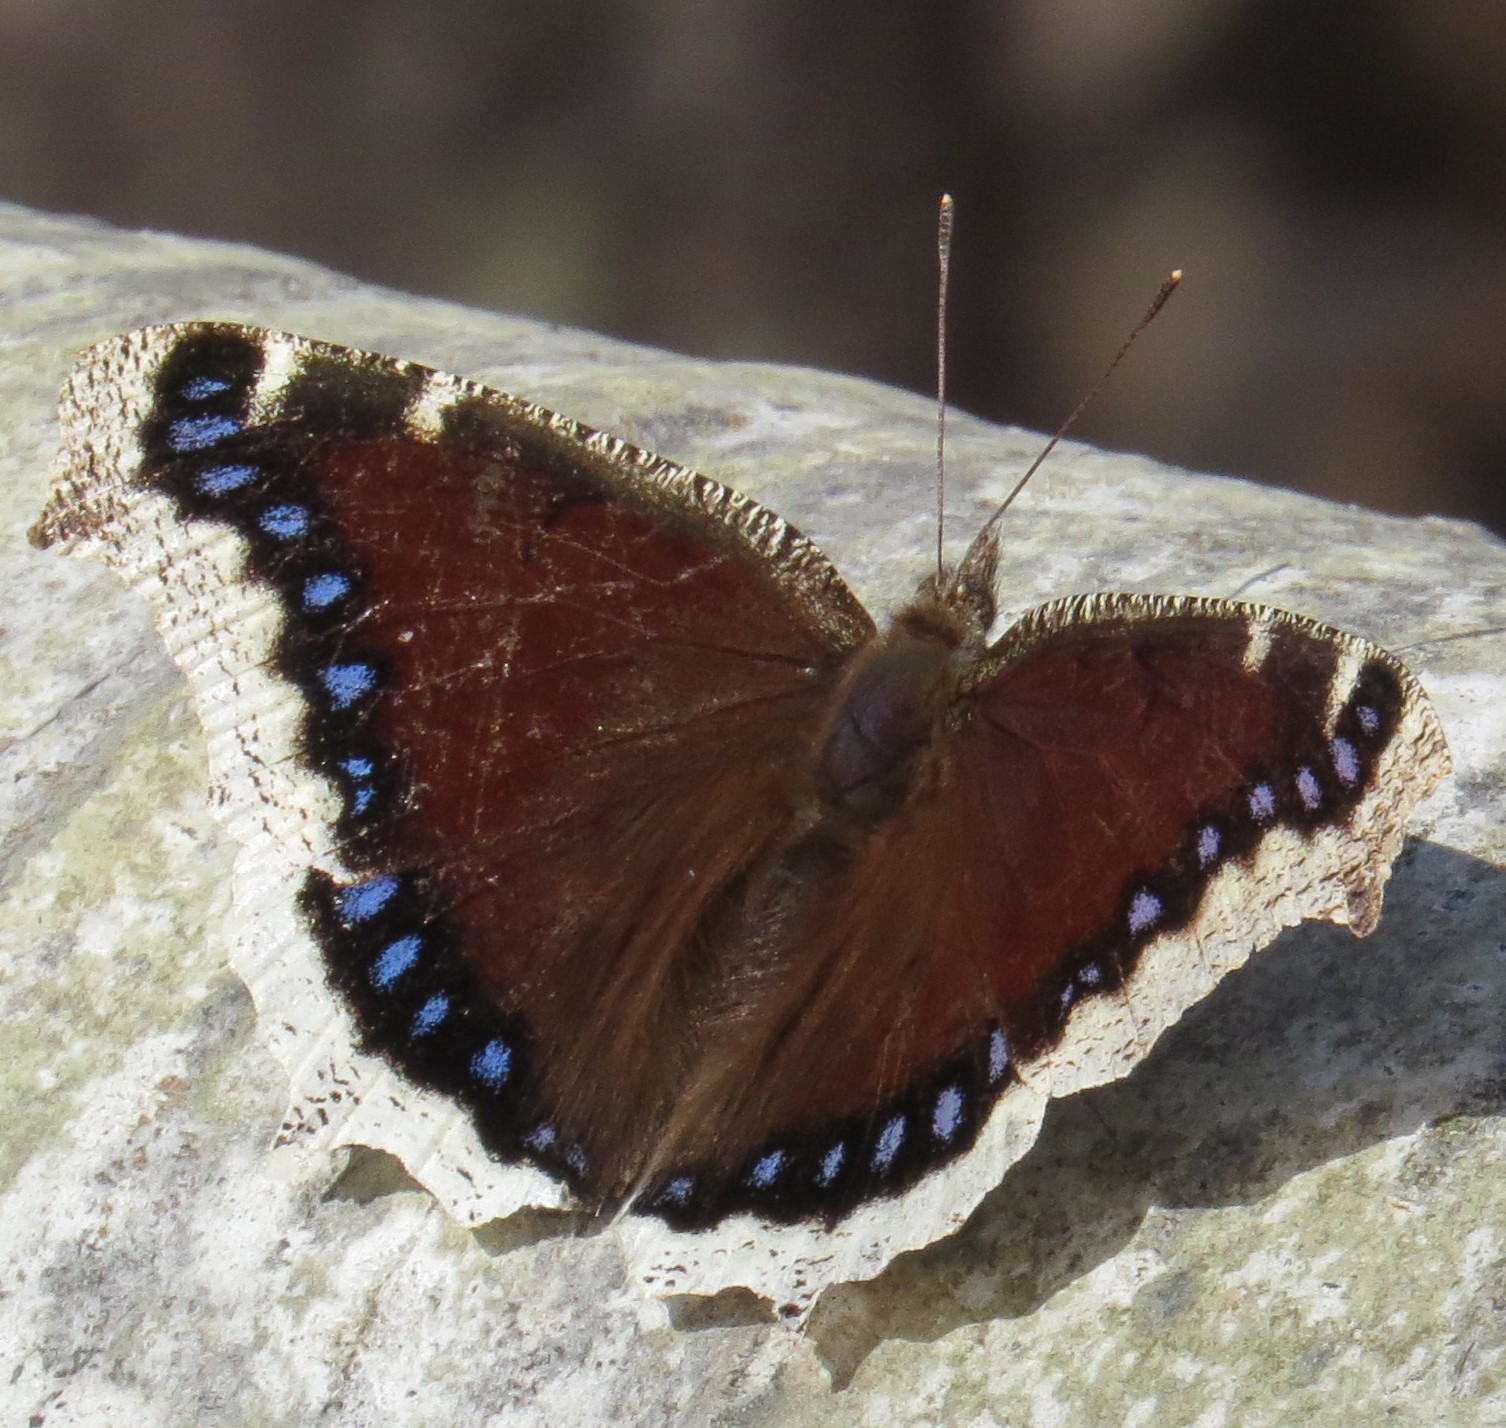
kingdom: Animalia
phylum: Arthropoda
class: Insecta
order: Lepidoptera
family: Nymphalidae
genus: Nymphalis
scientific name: Nymphalis antiopa
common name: Camberwell beauty
